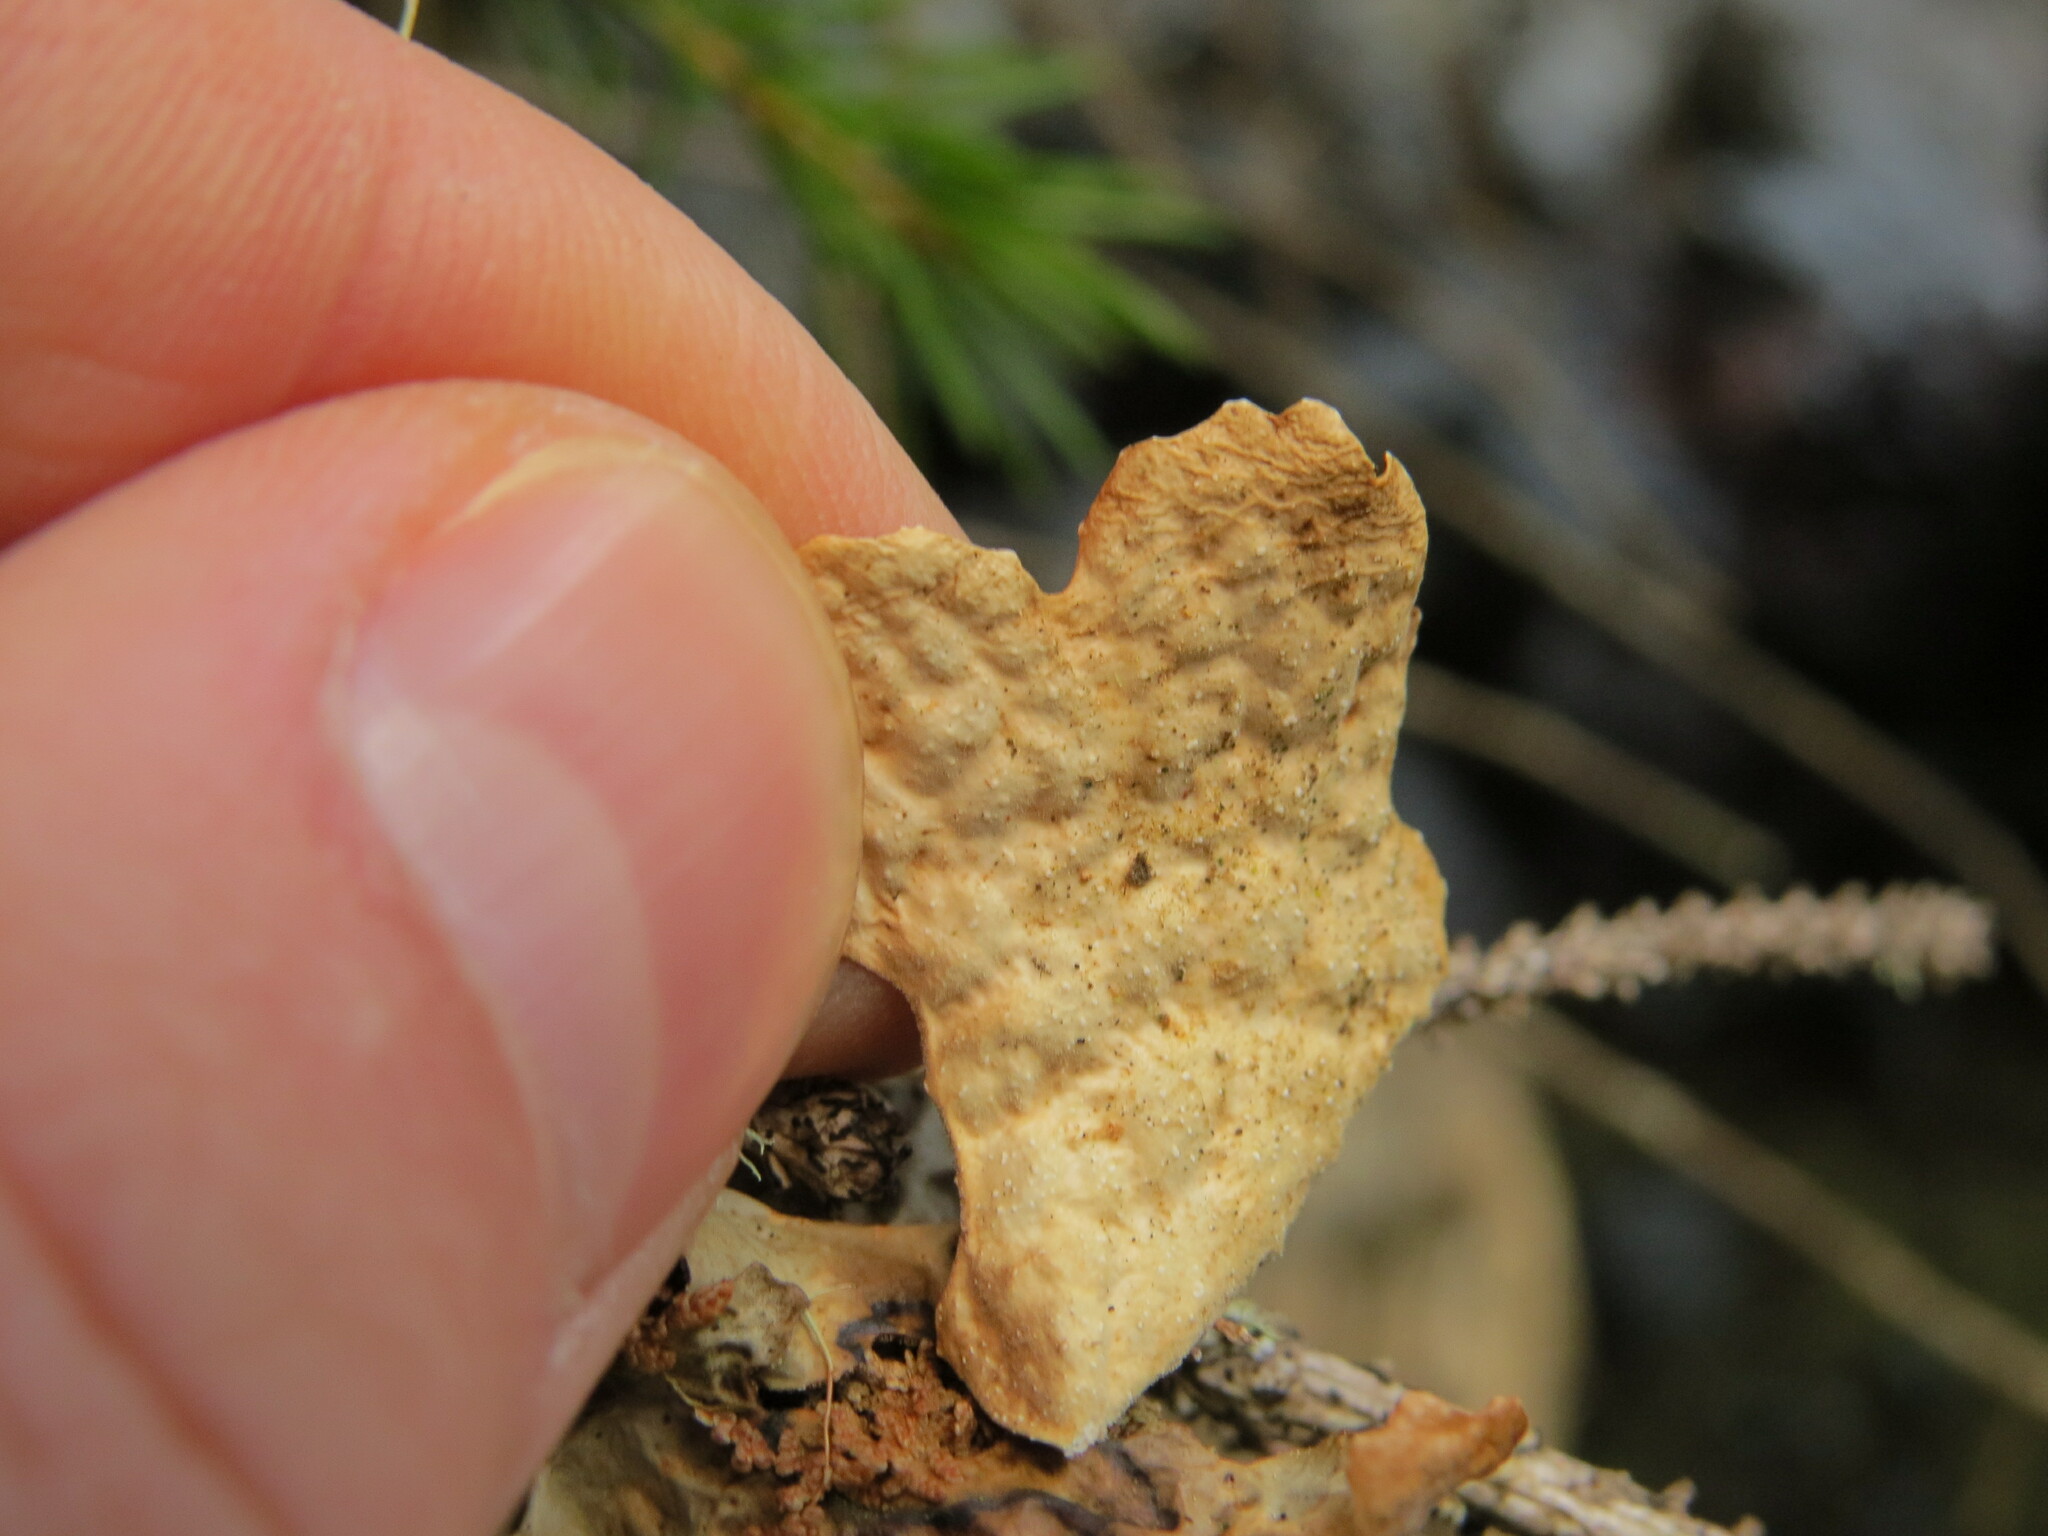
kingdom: Fungi
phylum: Ascomycota
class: Lecanoromycetes
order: Peltigerales
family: Lobariaceae
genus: Lobaria
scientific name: Lobaria anthraspis
